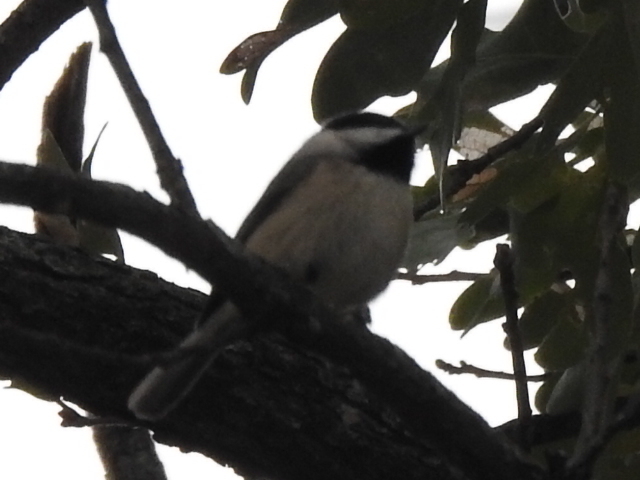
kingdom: Animalia
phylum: Chordata
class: Aves
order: Passeriformes
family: Paridae
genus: Poecile
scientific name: Poecile carolinensis
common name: Carolina chickadee
